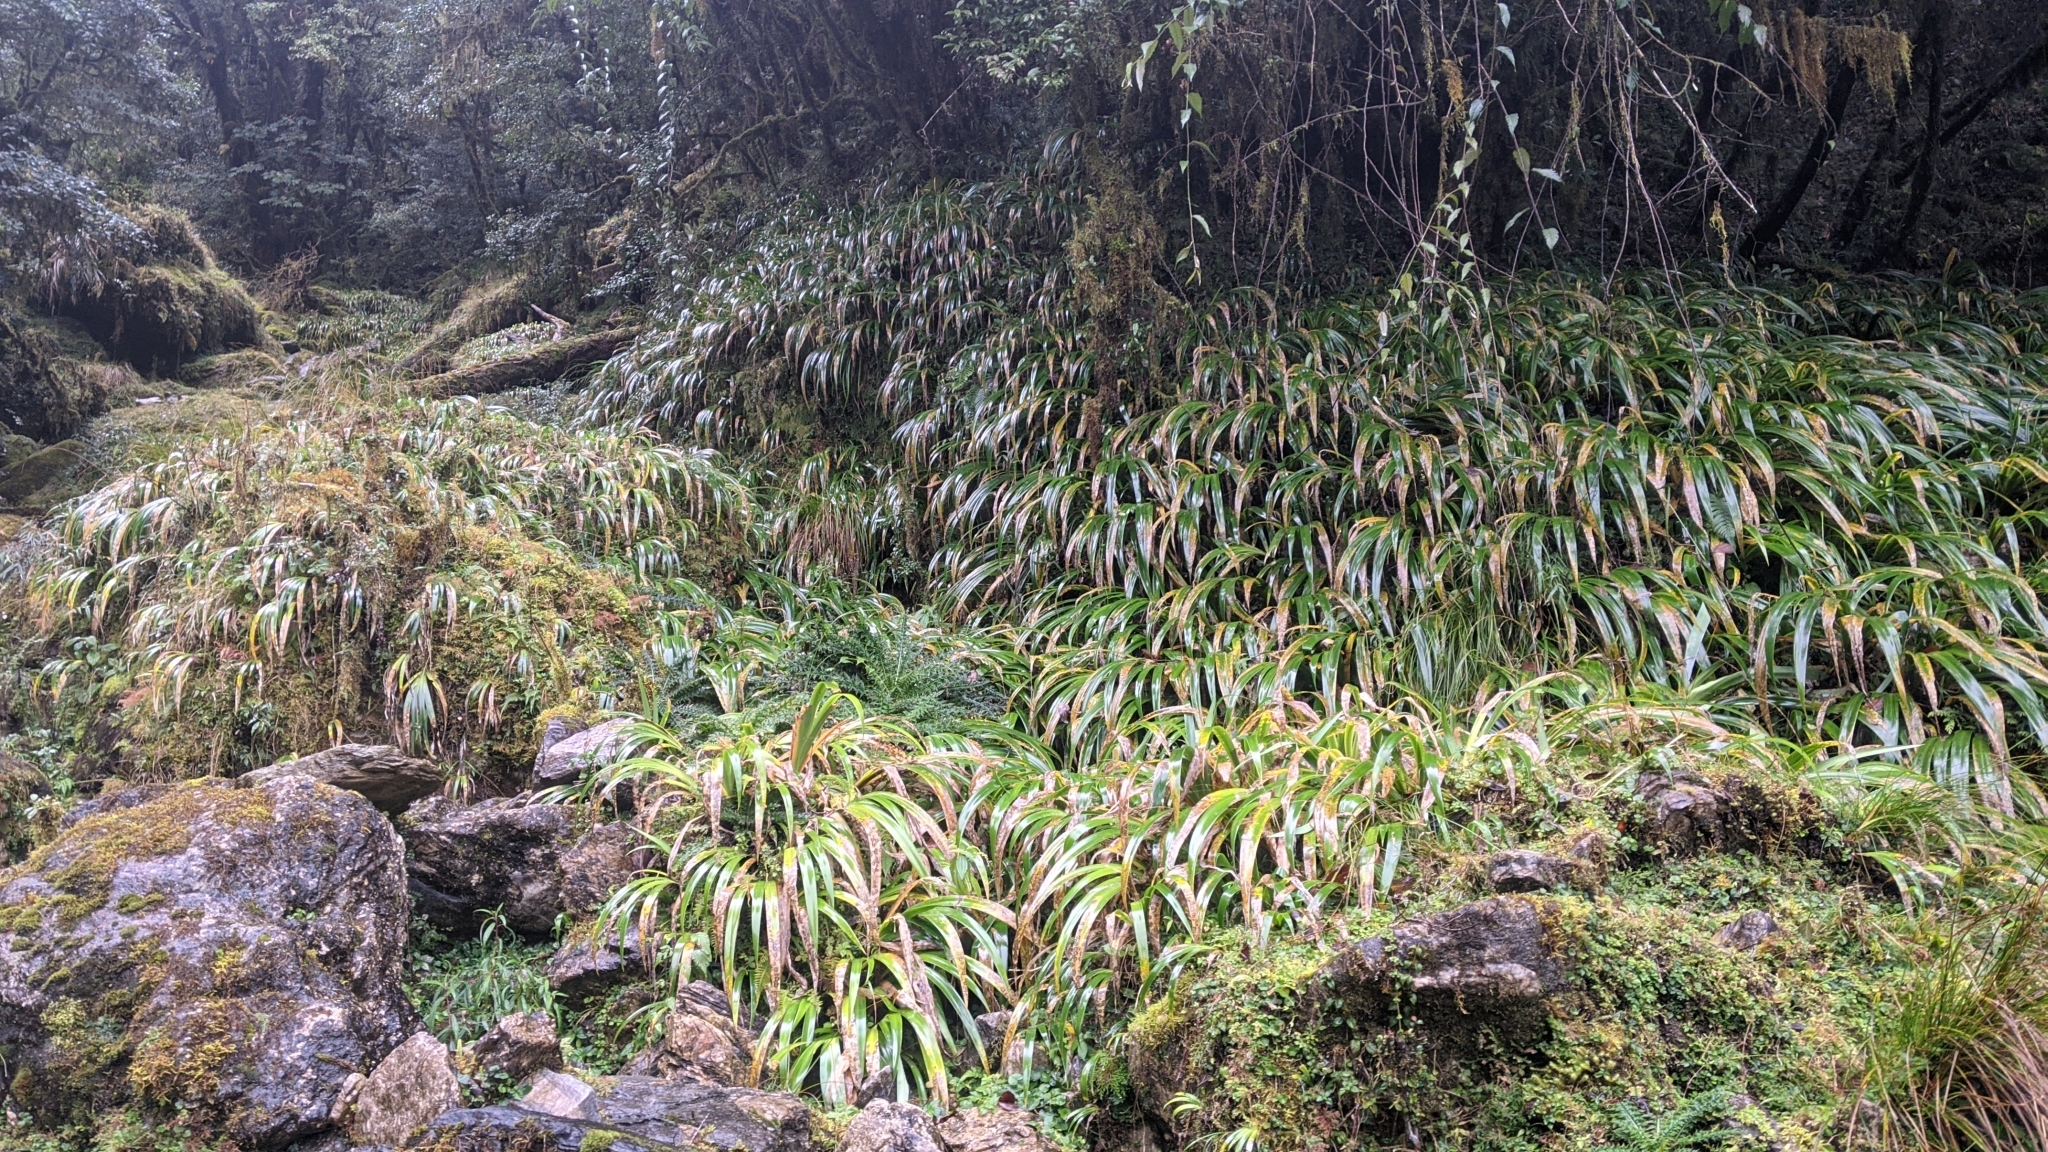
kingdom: Plantae
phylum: Tracheophyta
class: Liliopsida
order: Asparagales
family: Iridaceae
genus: Iris
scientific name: Iris formosana
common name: Taiwan iris
